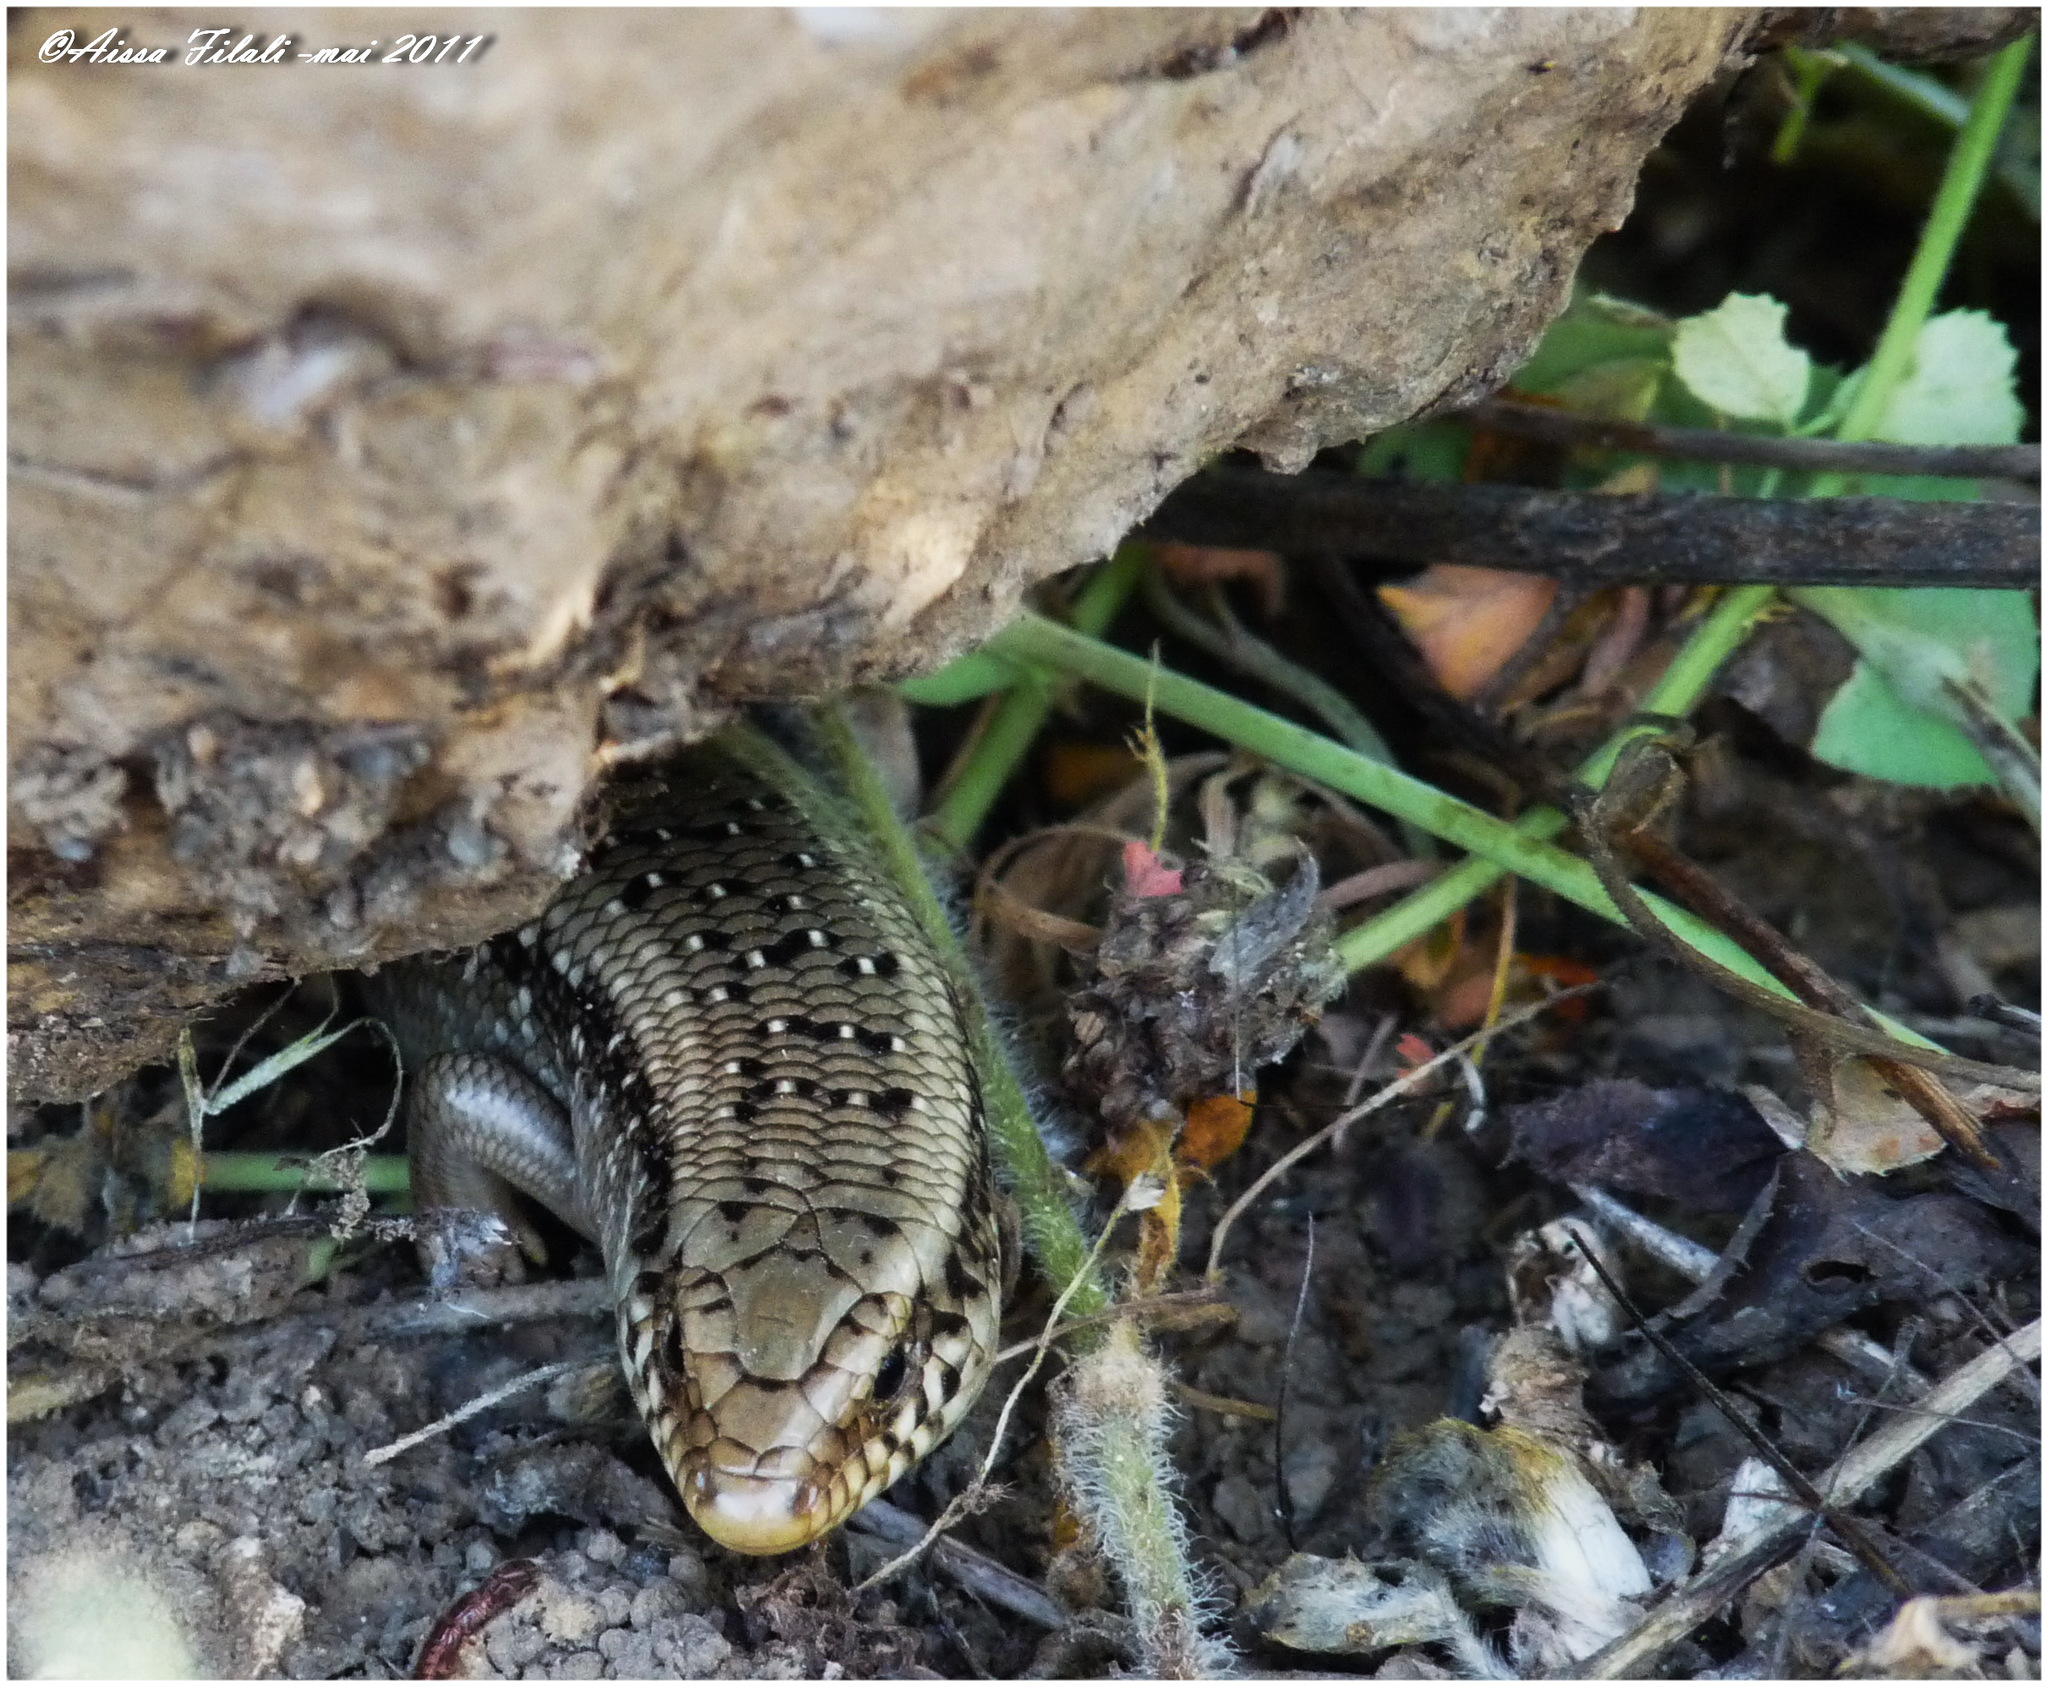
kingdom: Animalia
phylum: Chordata
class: Squamata
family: Scincidae
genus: Chalcides
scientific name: Chalcides ocellatus
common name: Ocellated skink
